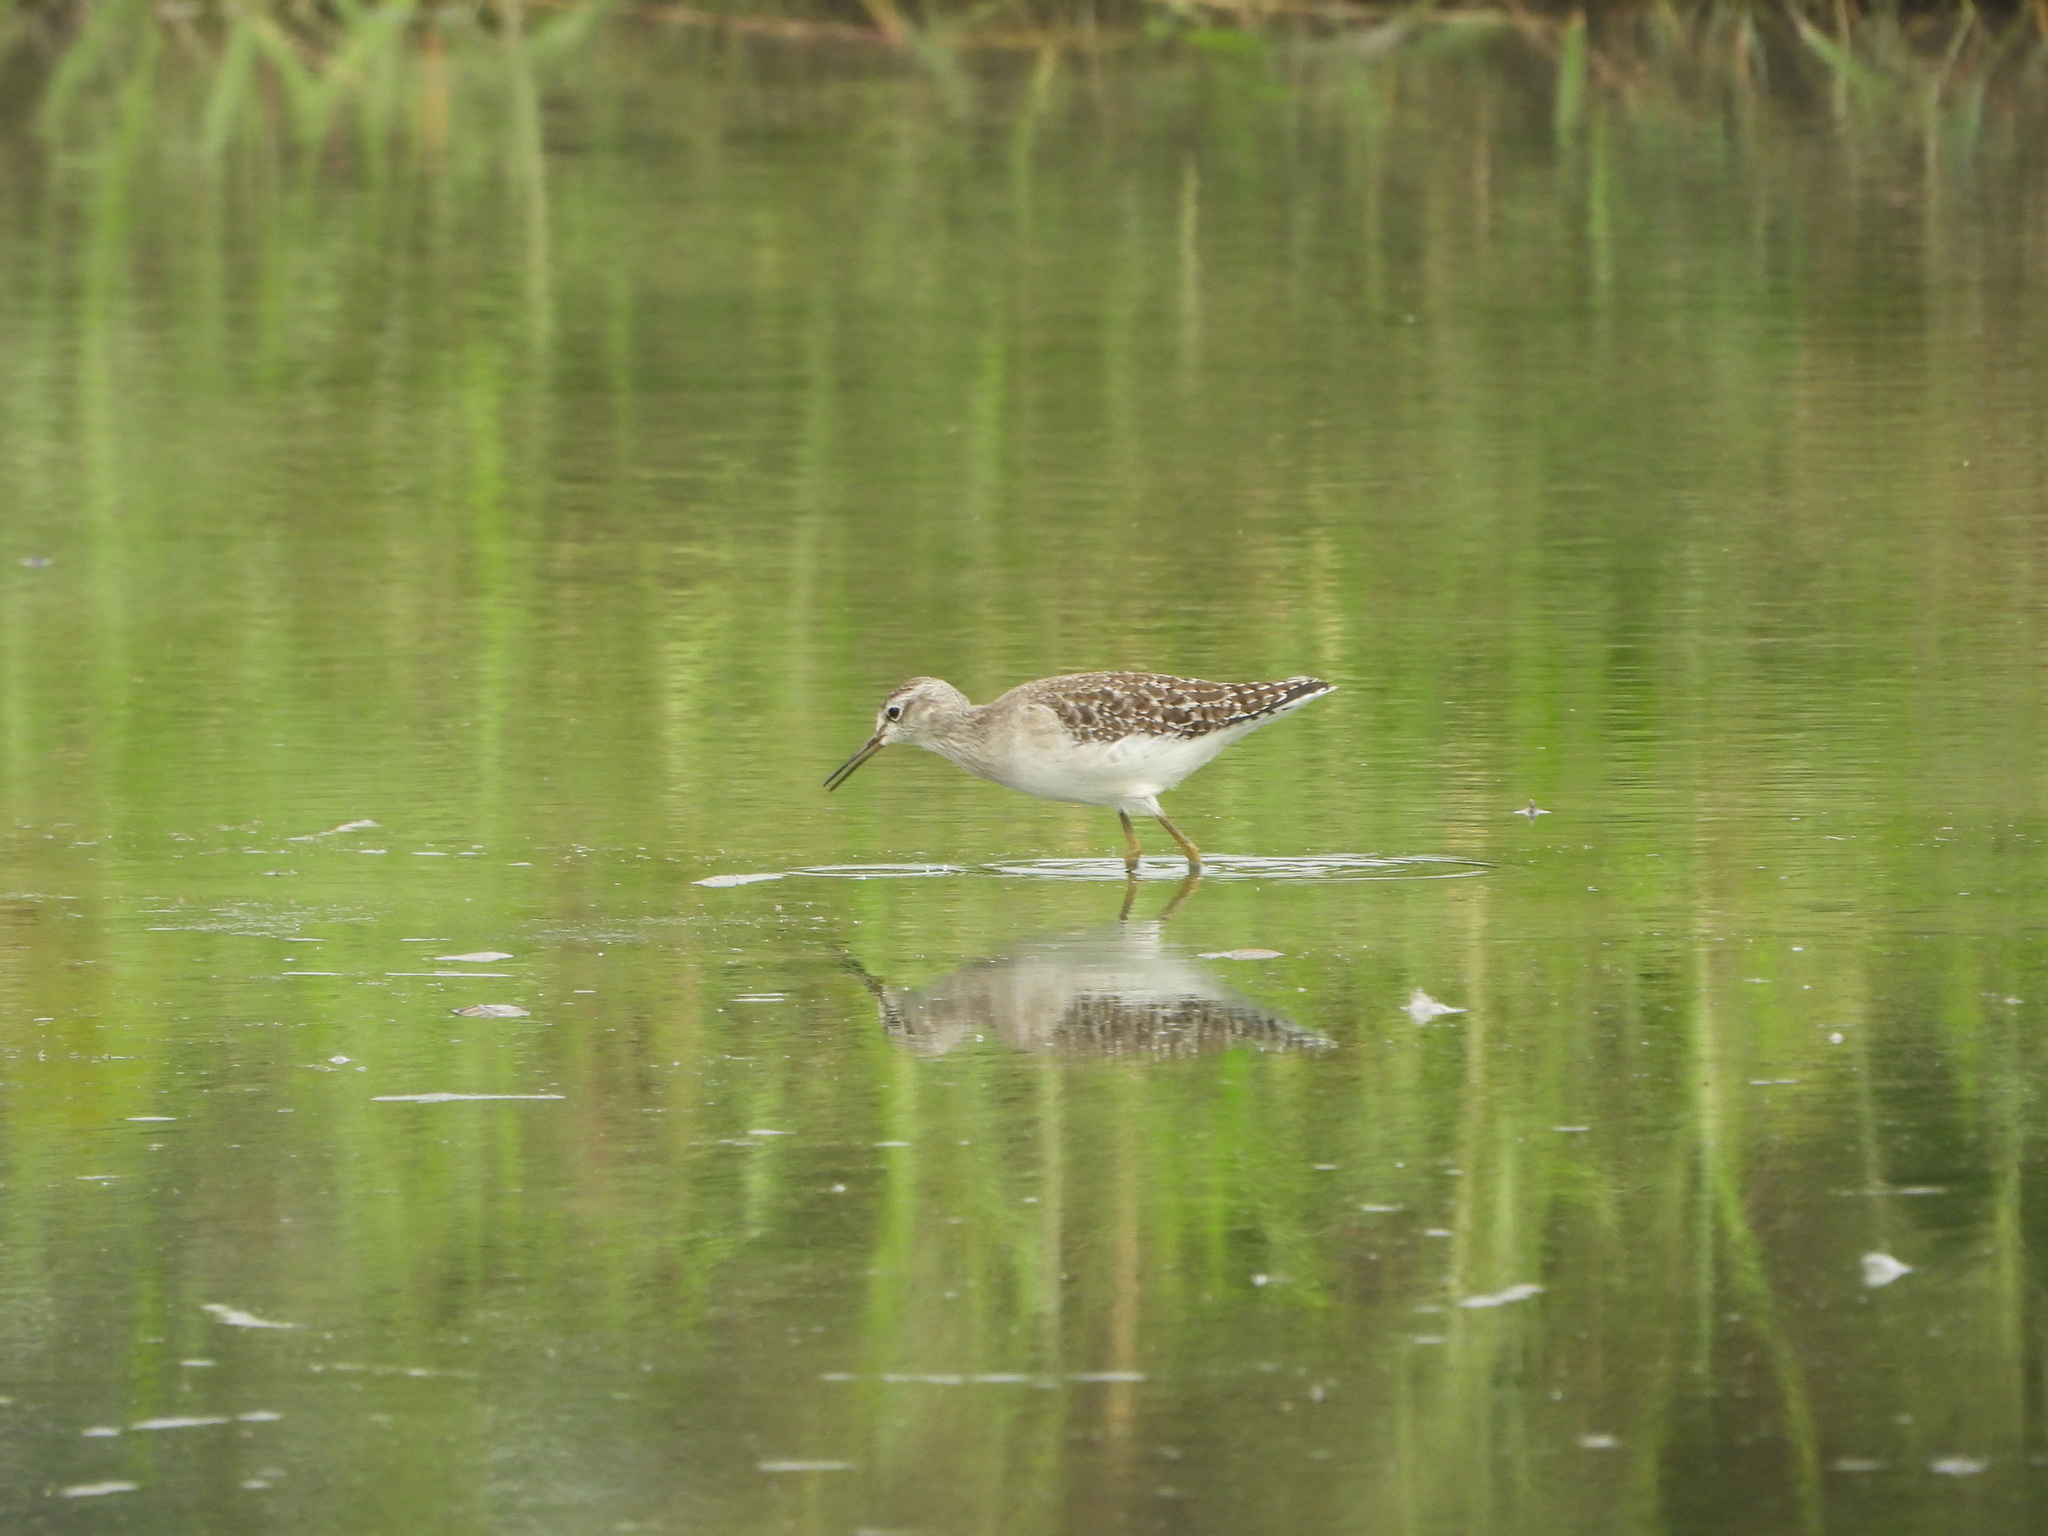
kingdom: Animalia
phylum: Chordata
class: Aves
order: Charadriiformes
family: Scolopacidae
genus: Tringa
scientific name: Tringa glareola
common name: Wood sandpiper
